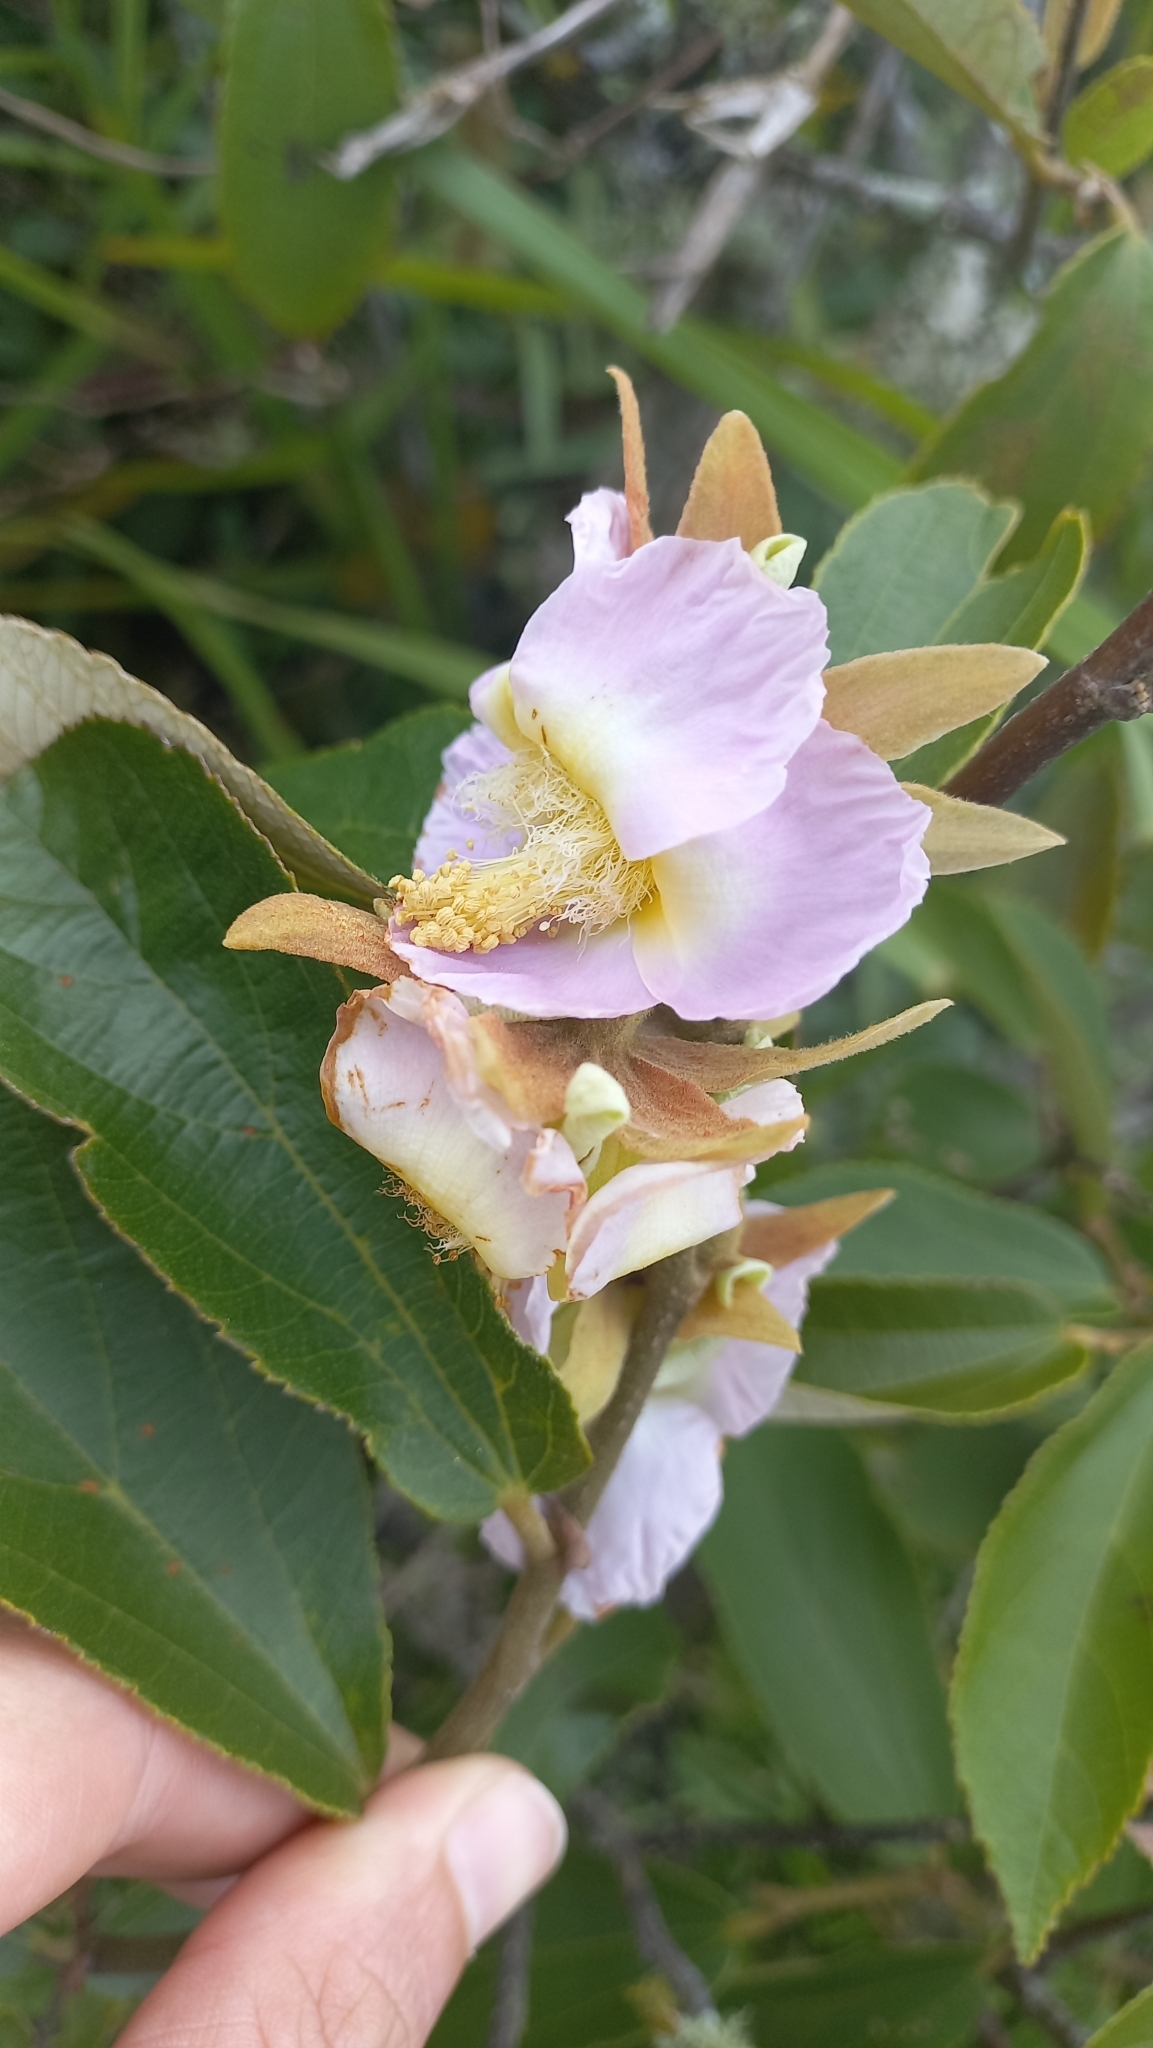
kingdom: Plantae
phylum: Tracheophyta
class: Magnoliopsida
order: Malvales
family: Malvaceae
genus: Luehea
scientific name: Luehea divaricata
